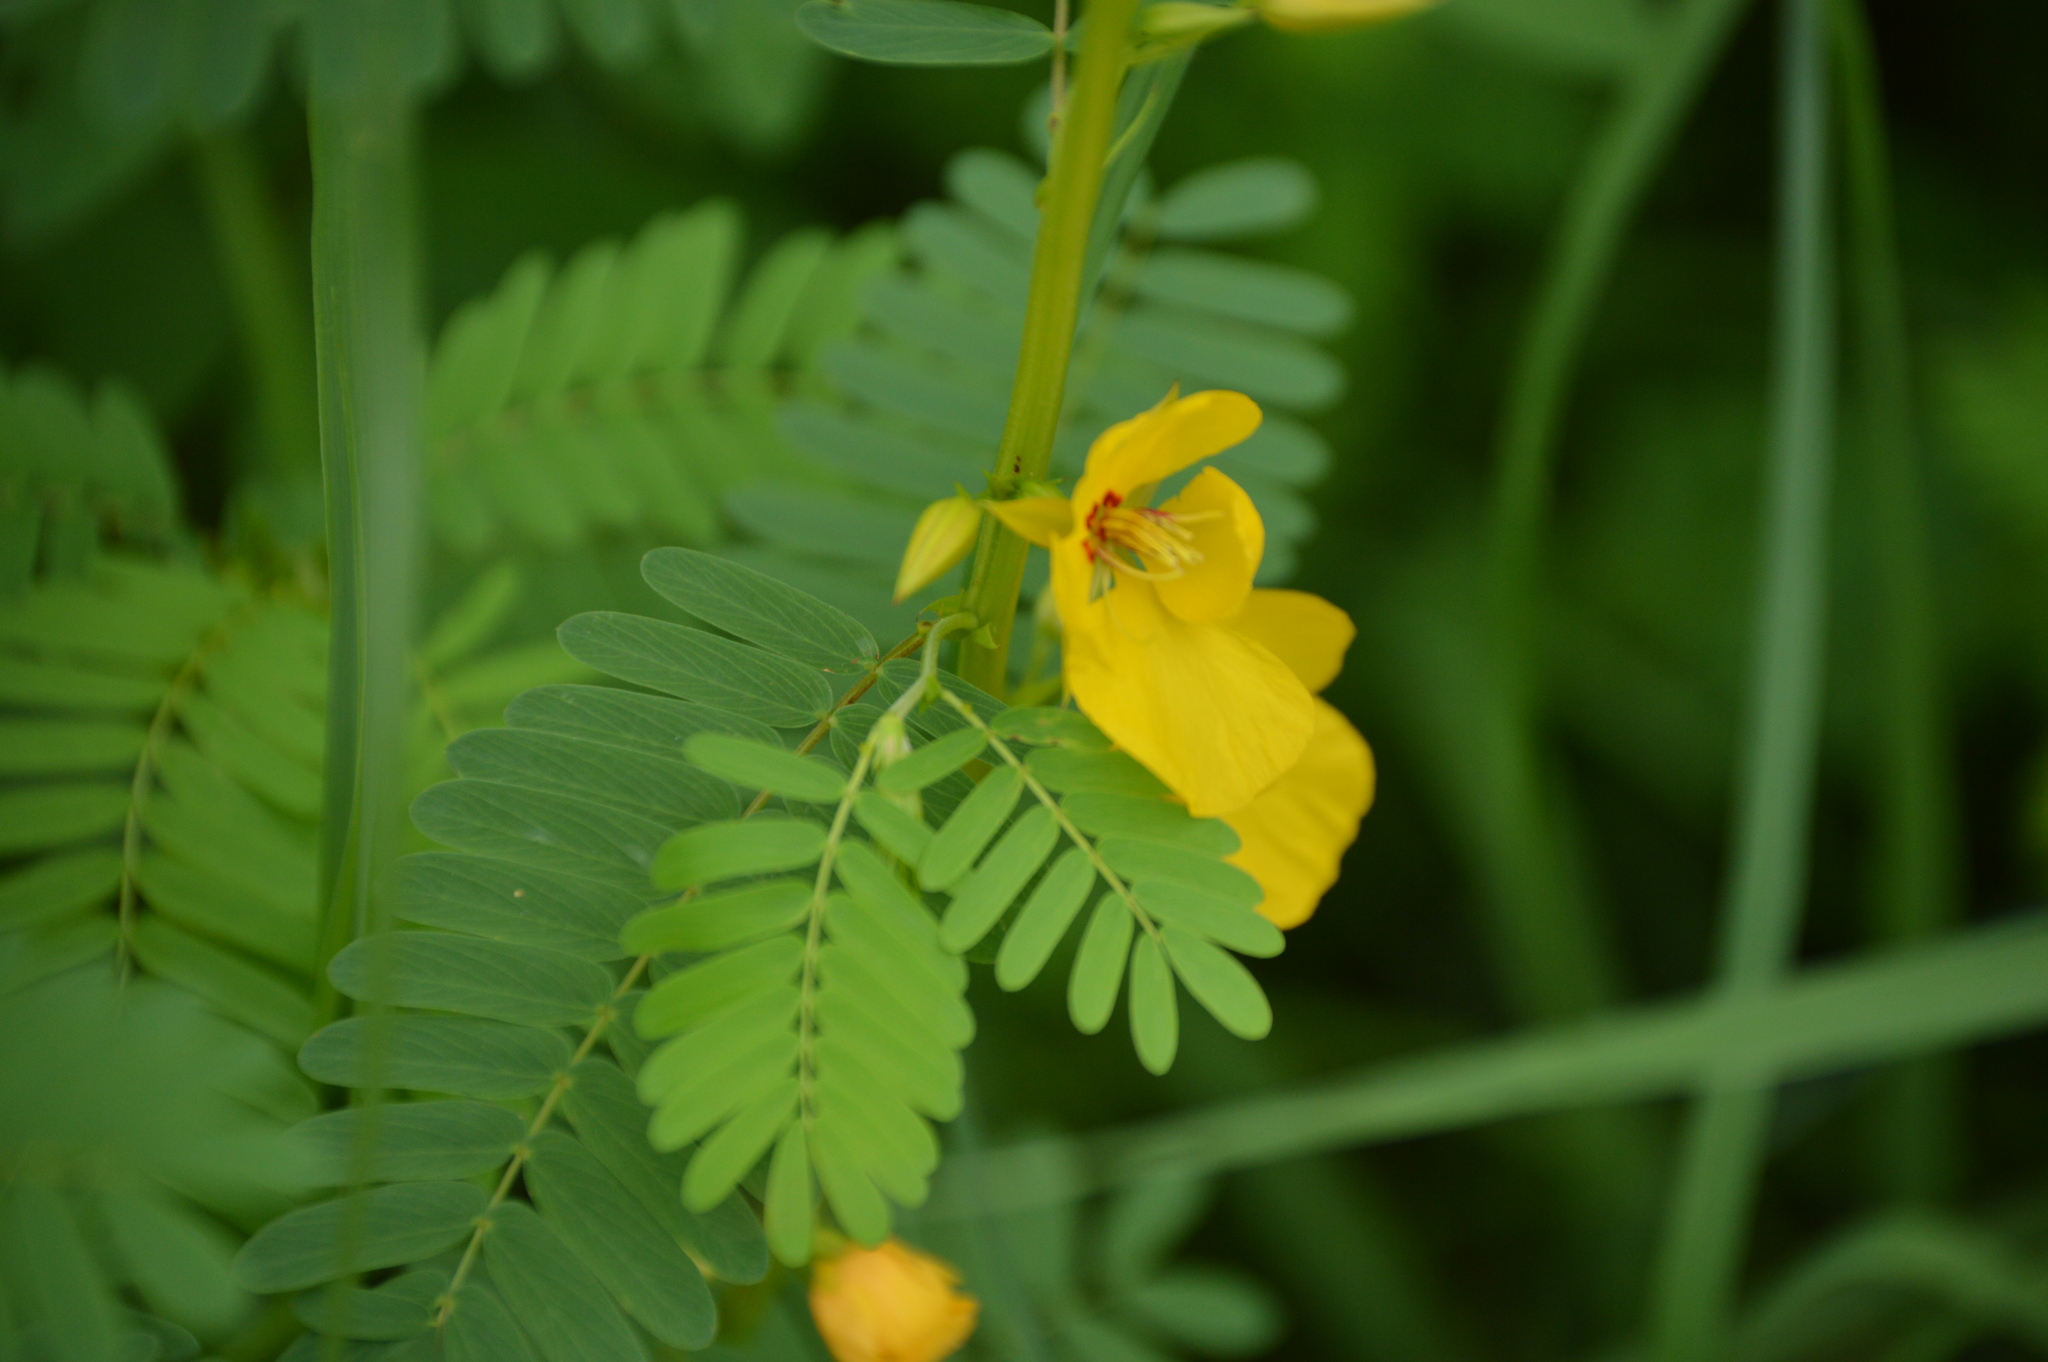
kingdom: Plantae
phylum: Tracheophyta
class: Magnoliopsida
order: Fabales
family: Fabaceae
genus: Chamaecrista
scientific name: Chamaecrista fasciculata
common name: Golden cassia
